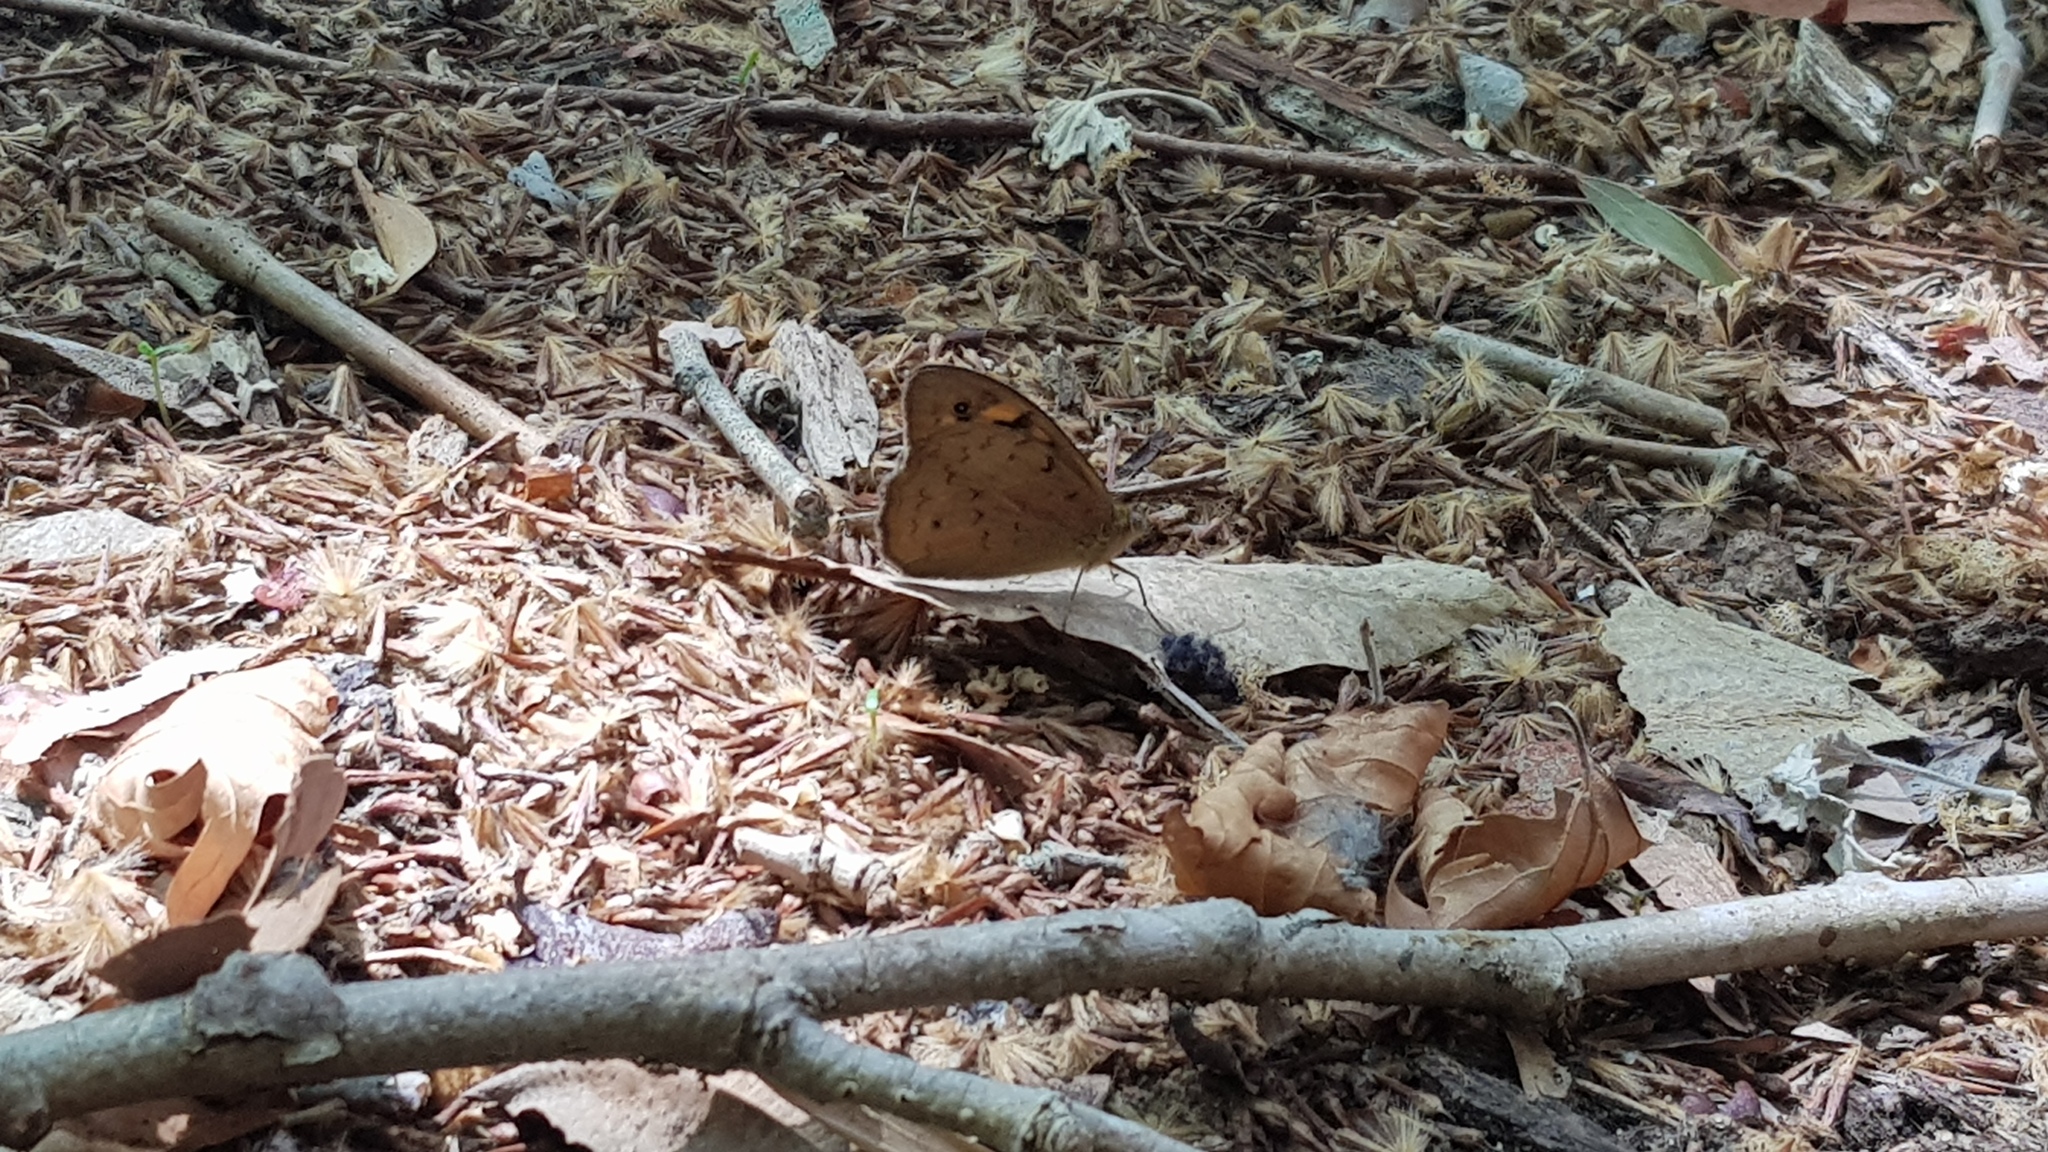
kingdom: Animalia
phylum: Arthropoda
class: Insecta
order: Lepidoptera
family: Nymphalidae
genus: Heteronympha
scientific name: Heteronympha merope
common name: Common brown
